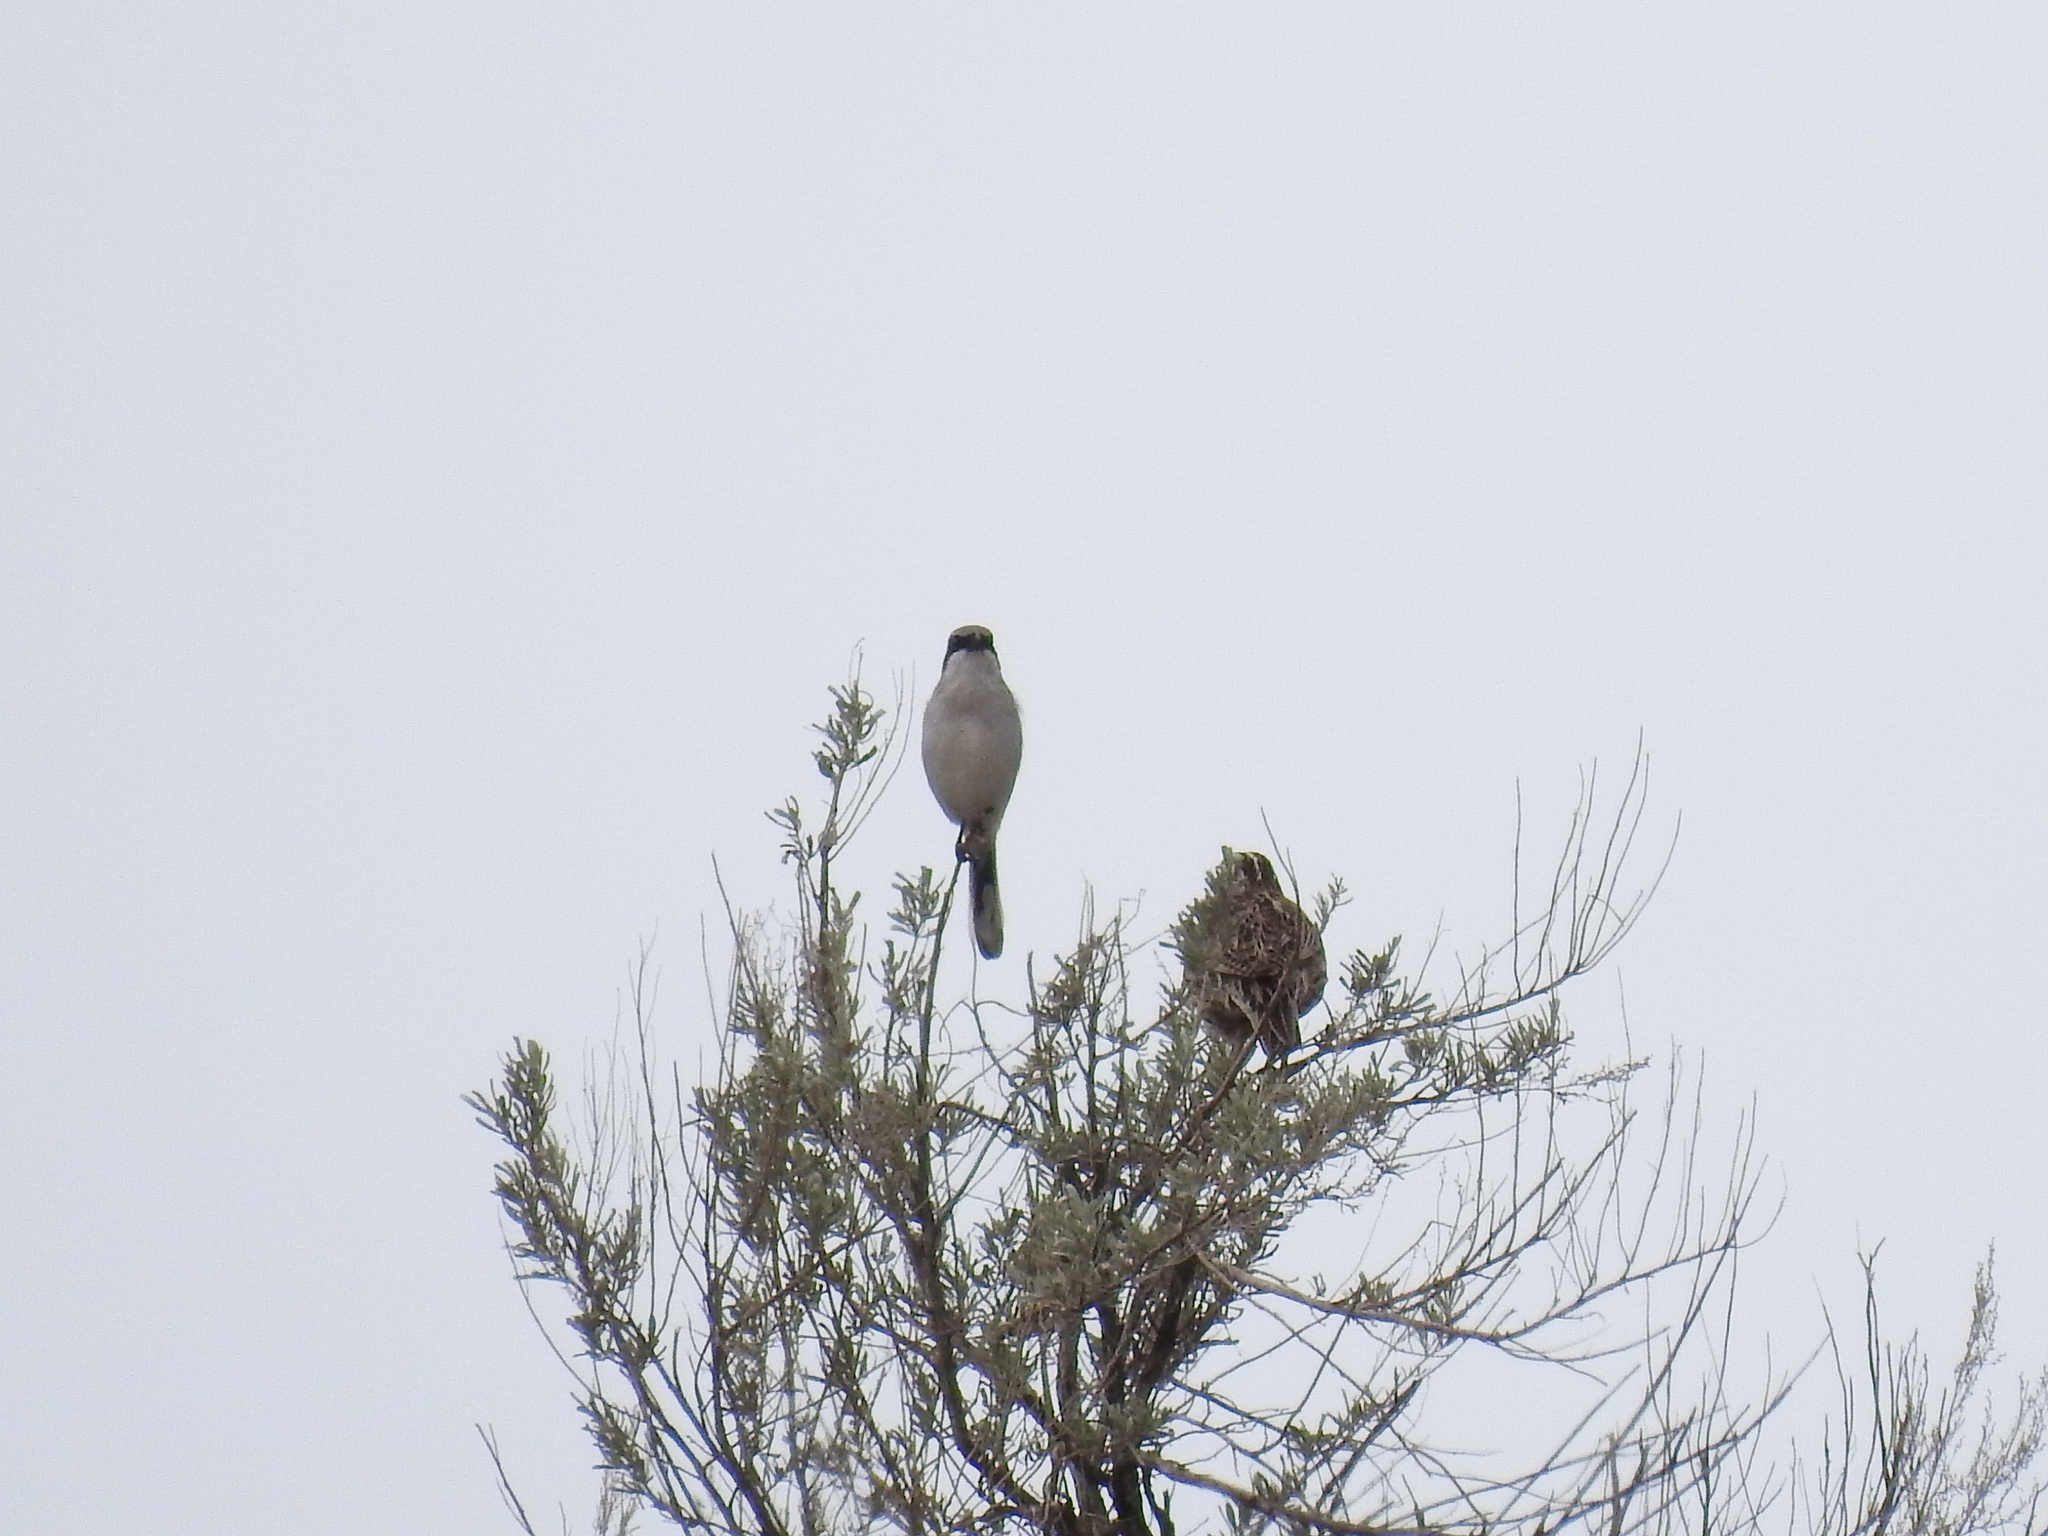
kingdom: Animalia
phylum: Chordata
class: Aves
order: Passeriformes
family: Icteridae
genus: Sturnella
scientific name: Sturnella neglecta
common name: Western meadowlark
